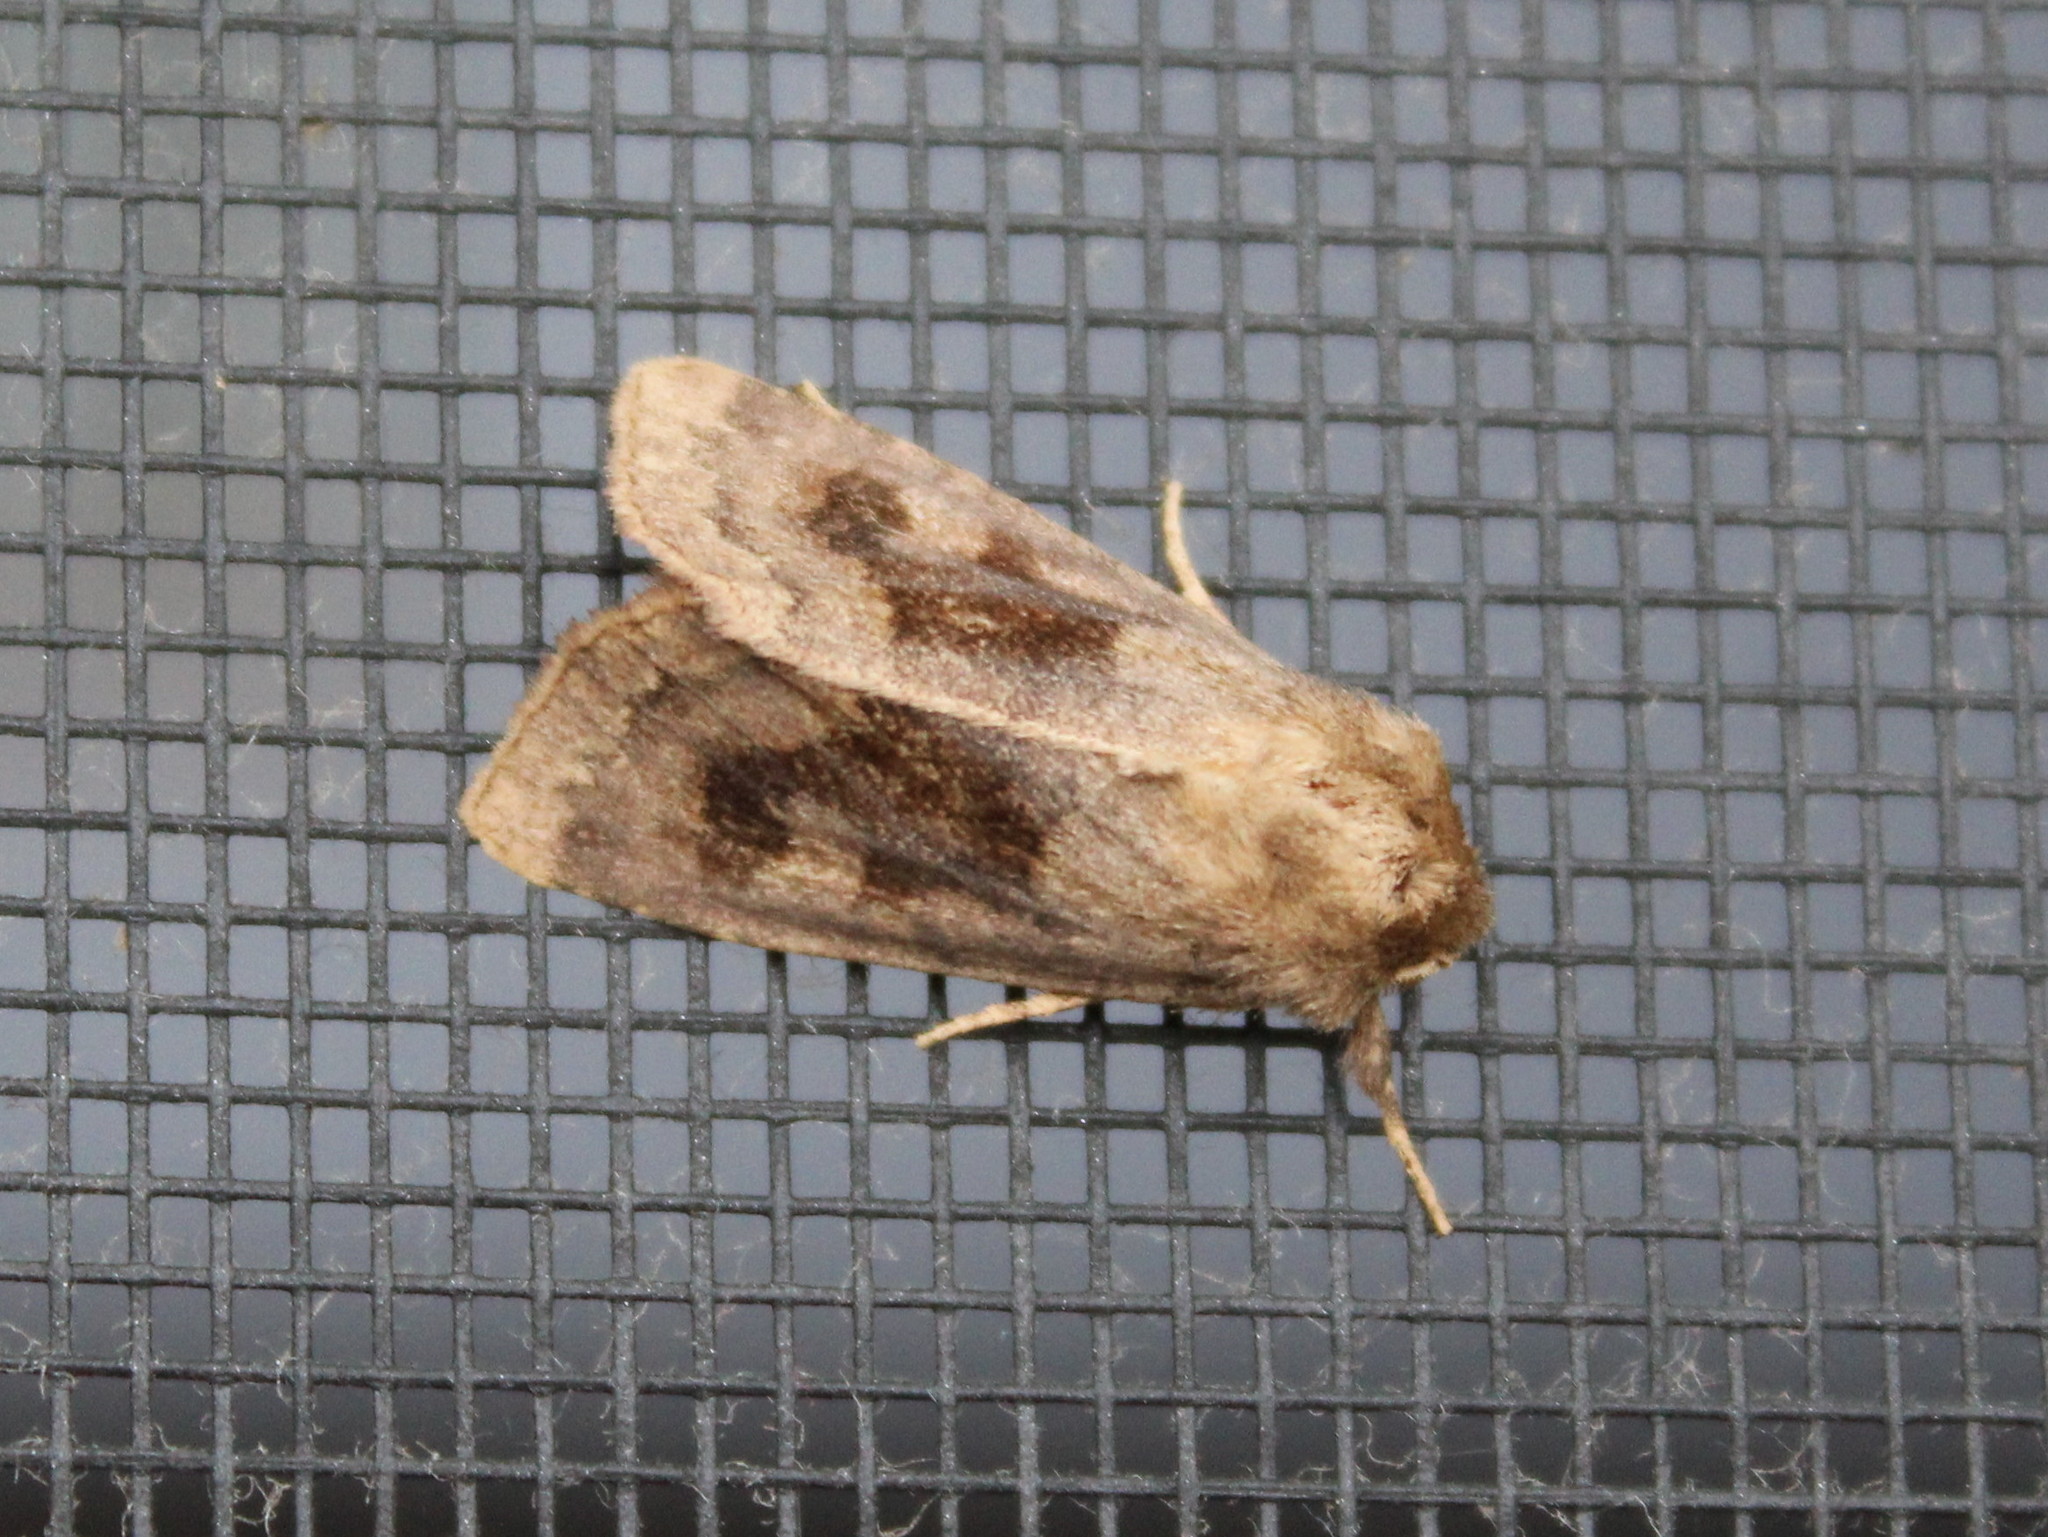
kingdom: Animalia
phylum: Arthropoda
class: Insecta
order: Lepidoptera
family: Noctuidae
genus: Nephelodes
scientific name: Nephelodes minians
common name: Bronzed cutworm
